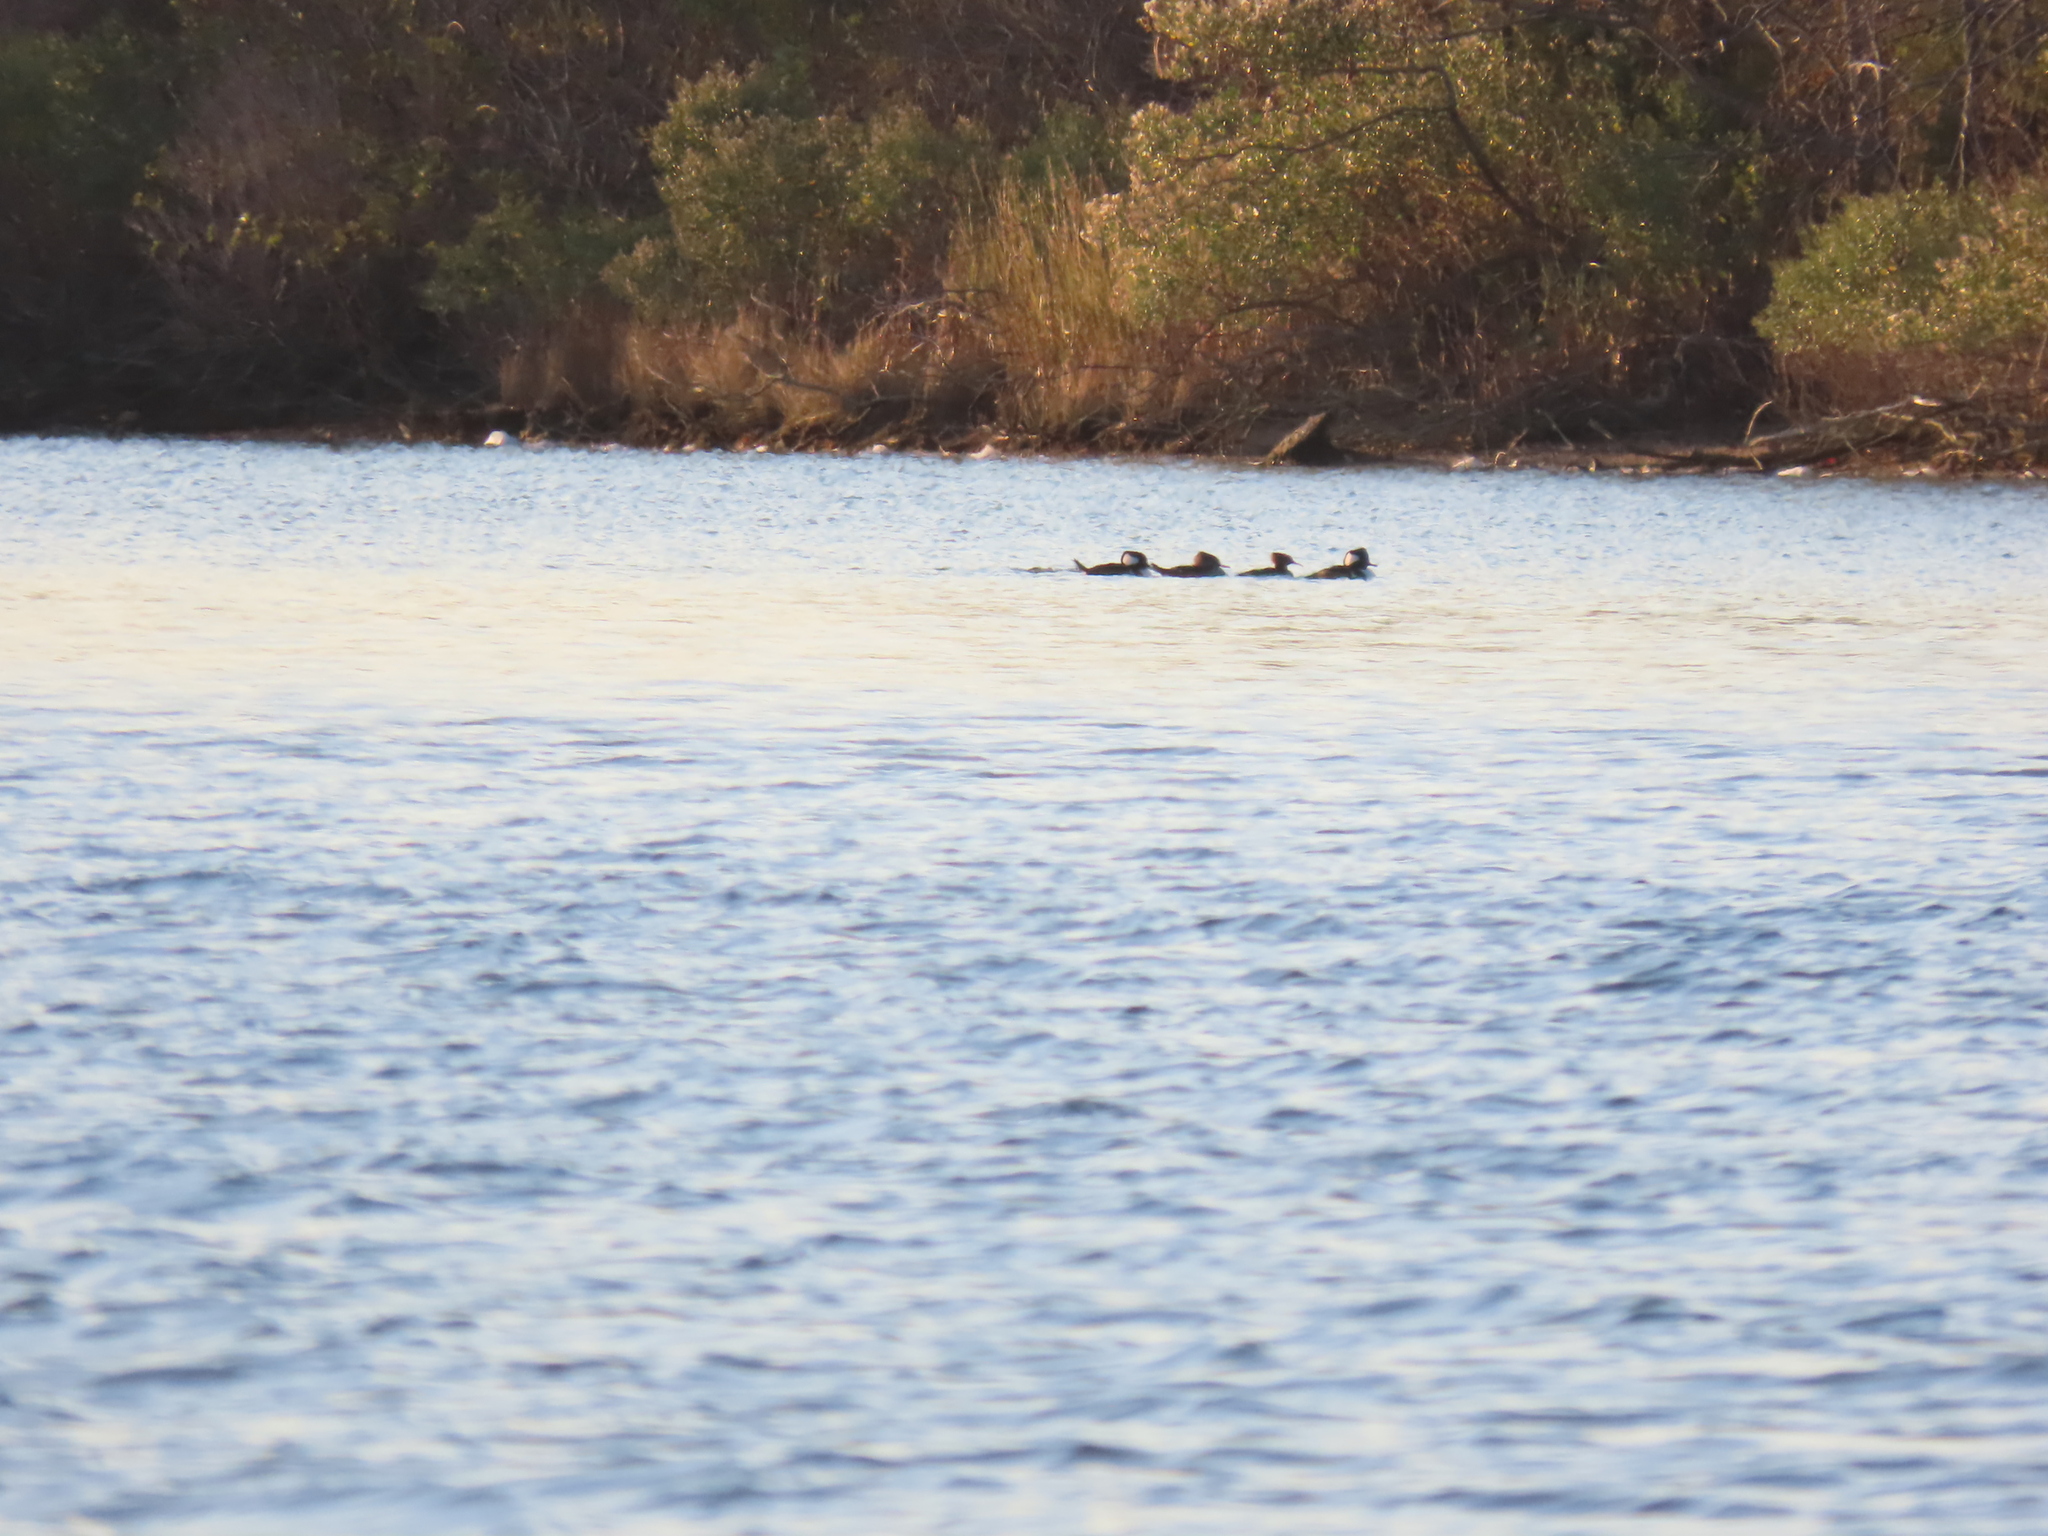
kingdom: Animalia
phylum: Chordata
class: Aves
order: Anseriformes
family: Anatidae
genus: Lophodytes
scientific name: Lophodytes cucullatus
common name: Hooded merganser
